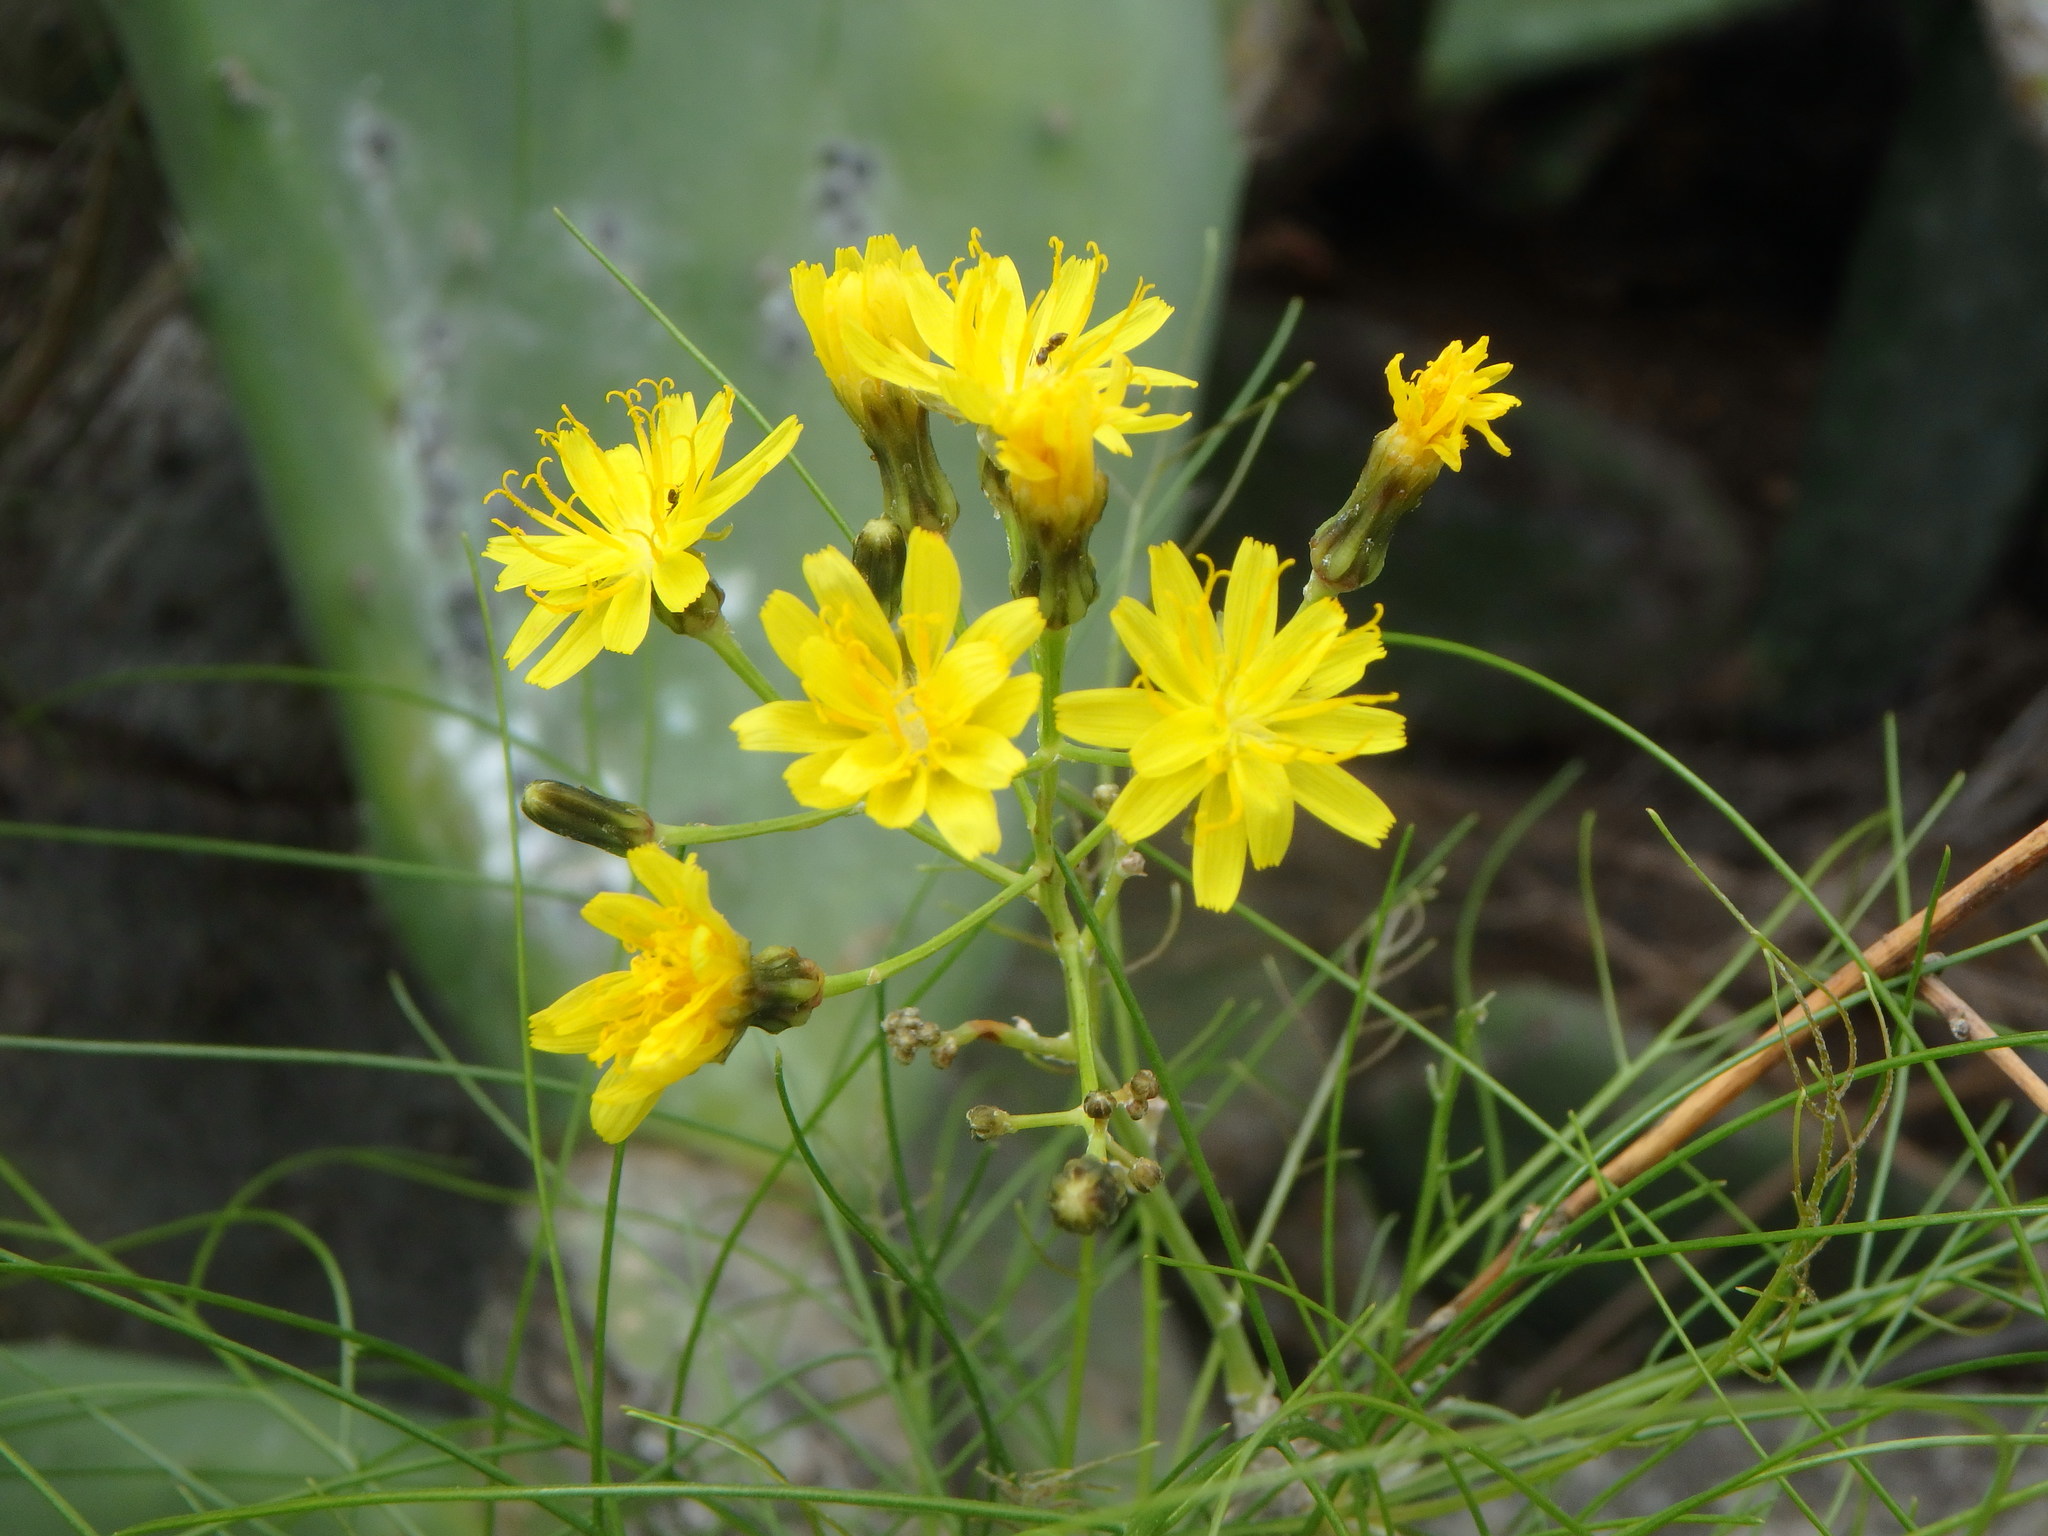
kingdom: Plantae
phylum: Tracheophyta
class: Magnoliopsida
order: Asterales
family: Asteraceae
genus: Sonchus
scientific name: Sonchus capillaris
